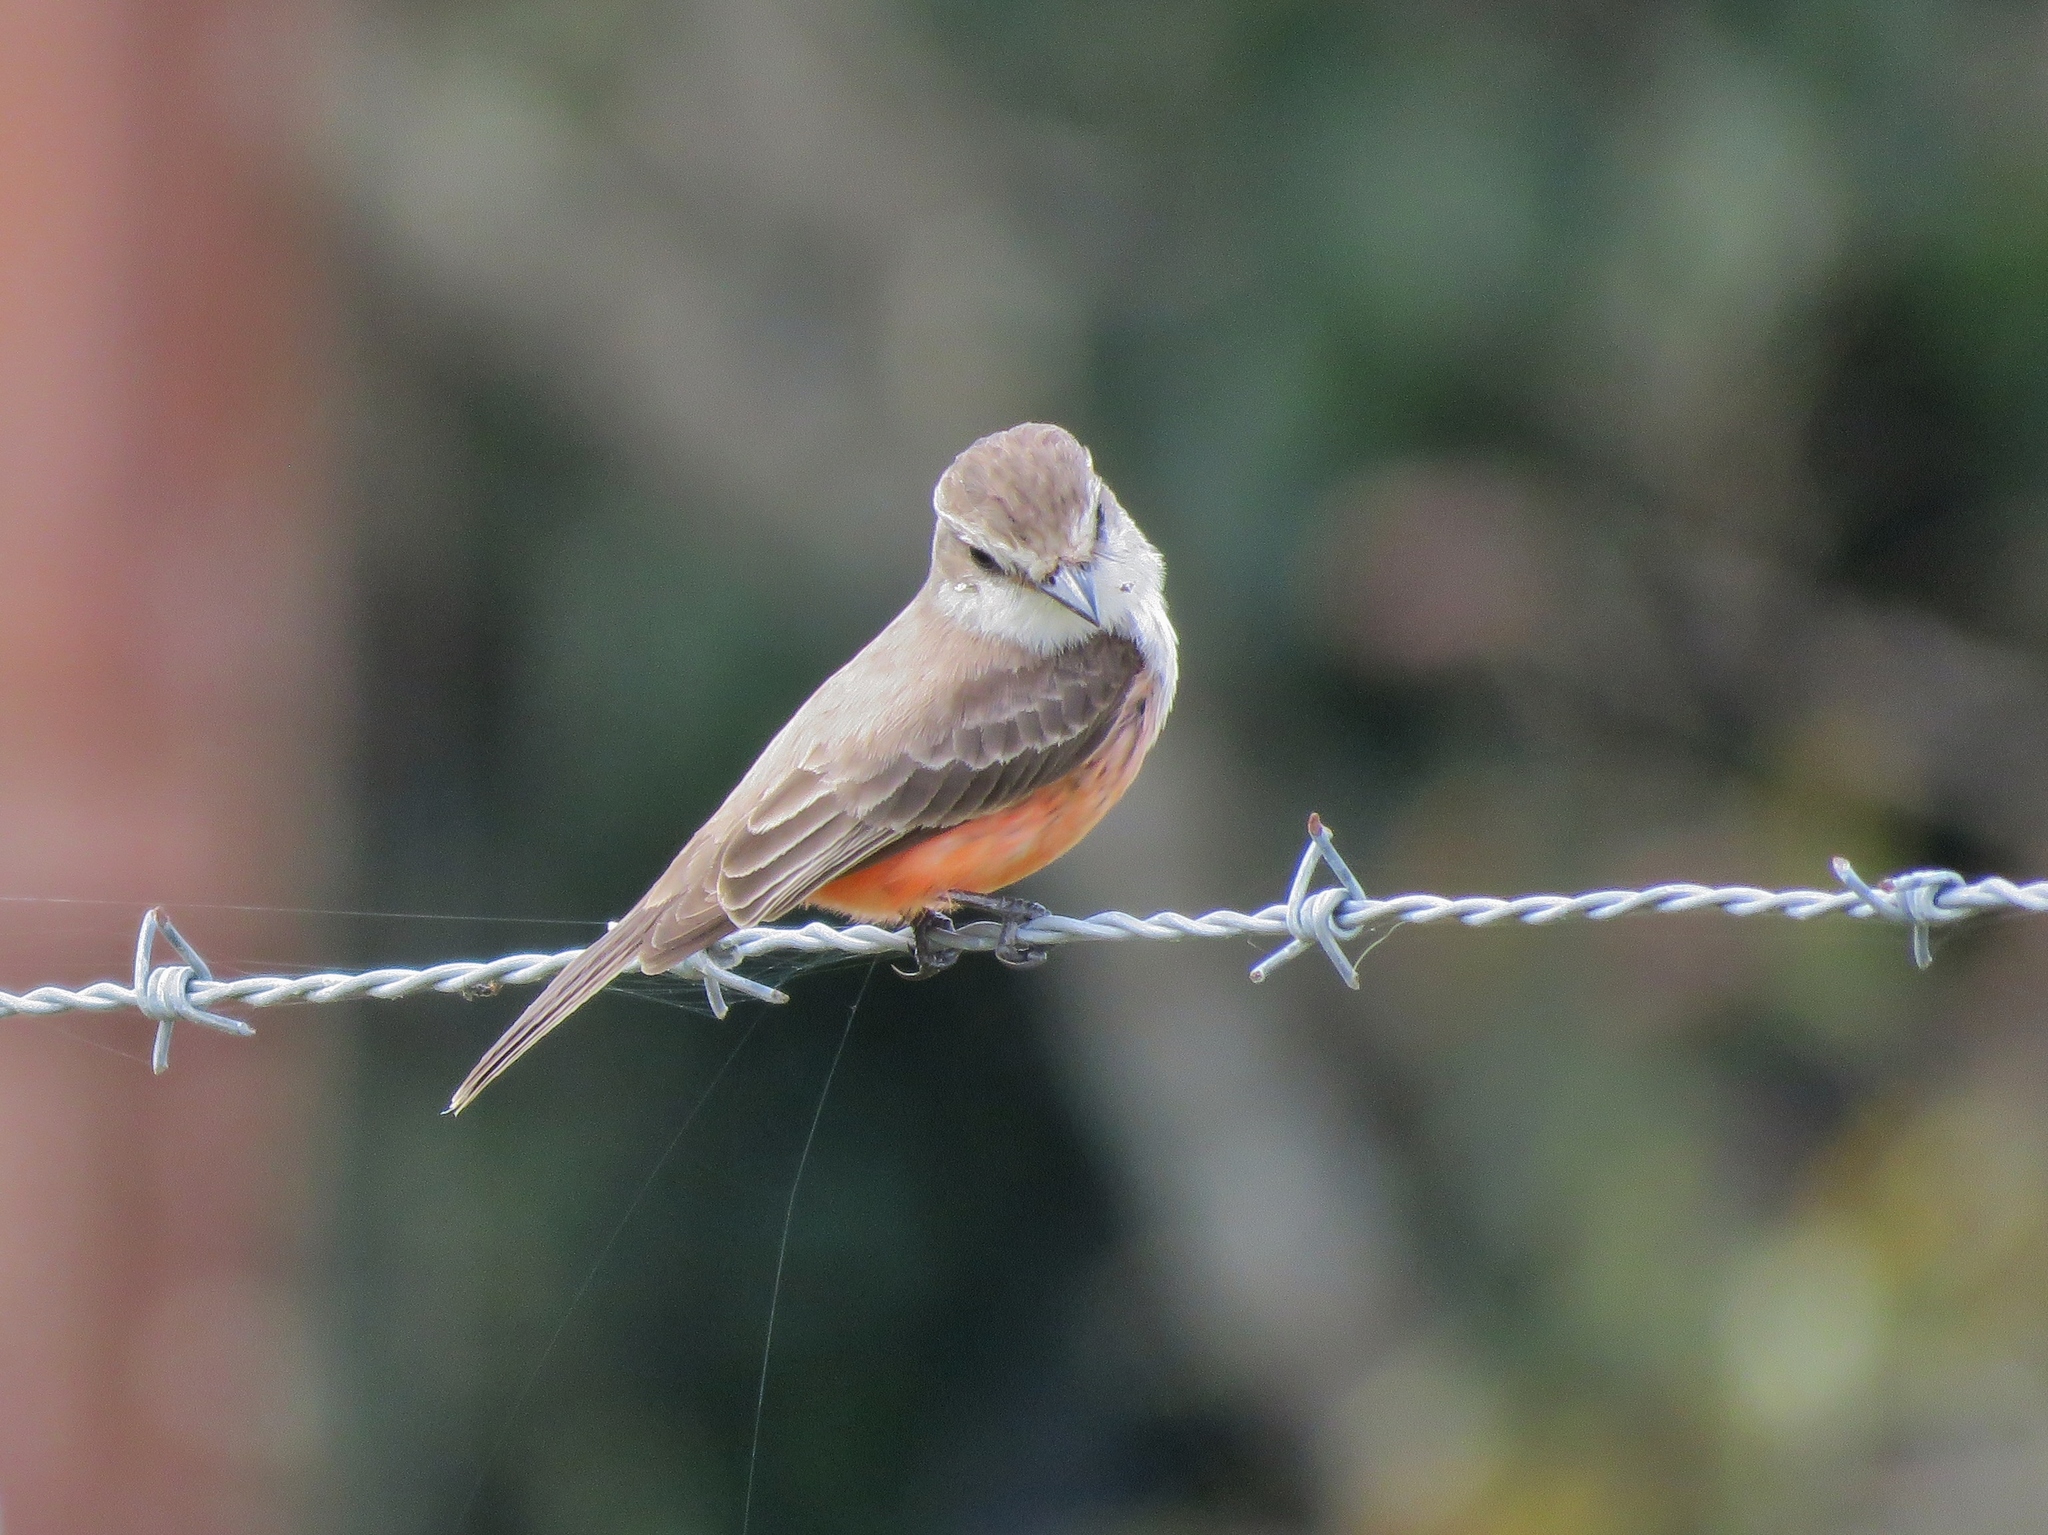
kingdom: Animalia
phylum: Chordata
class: Aves
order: Passeriformes
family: Tyrannidae
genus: Pyrocephalus
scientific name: Pyrocephalus rubinus
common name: Vermilion flycatcher
